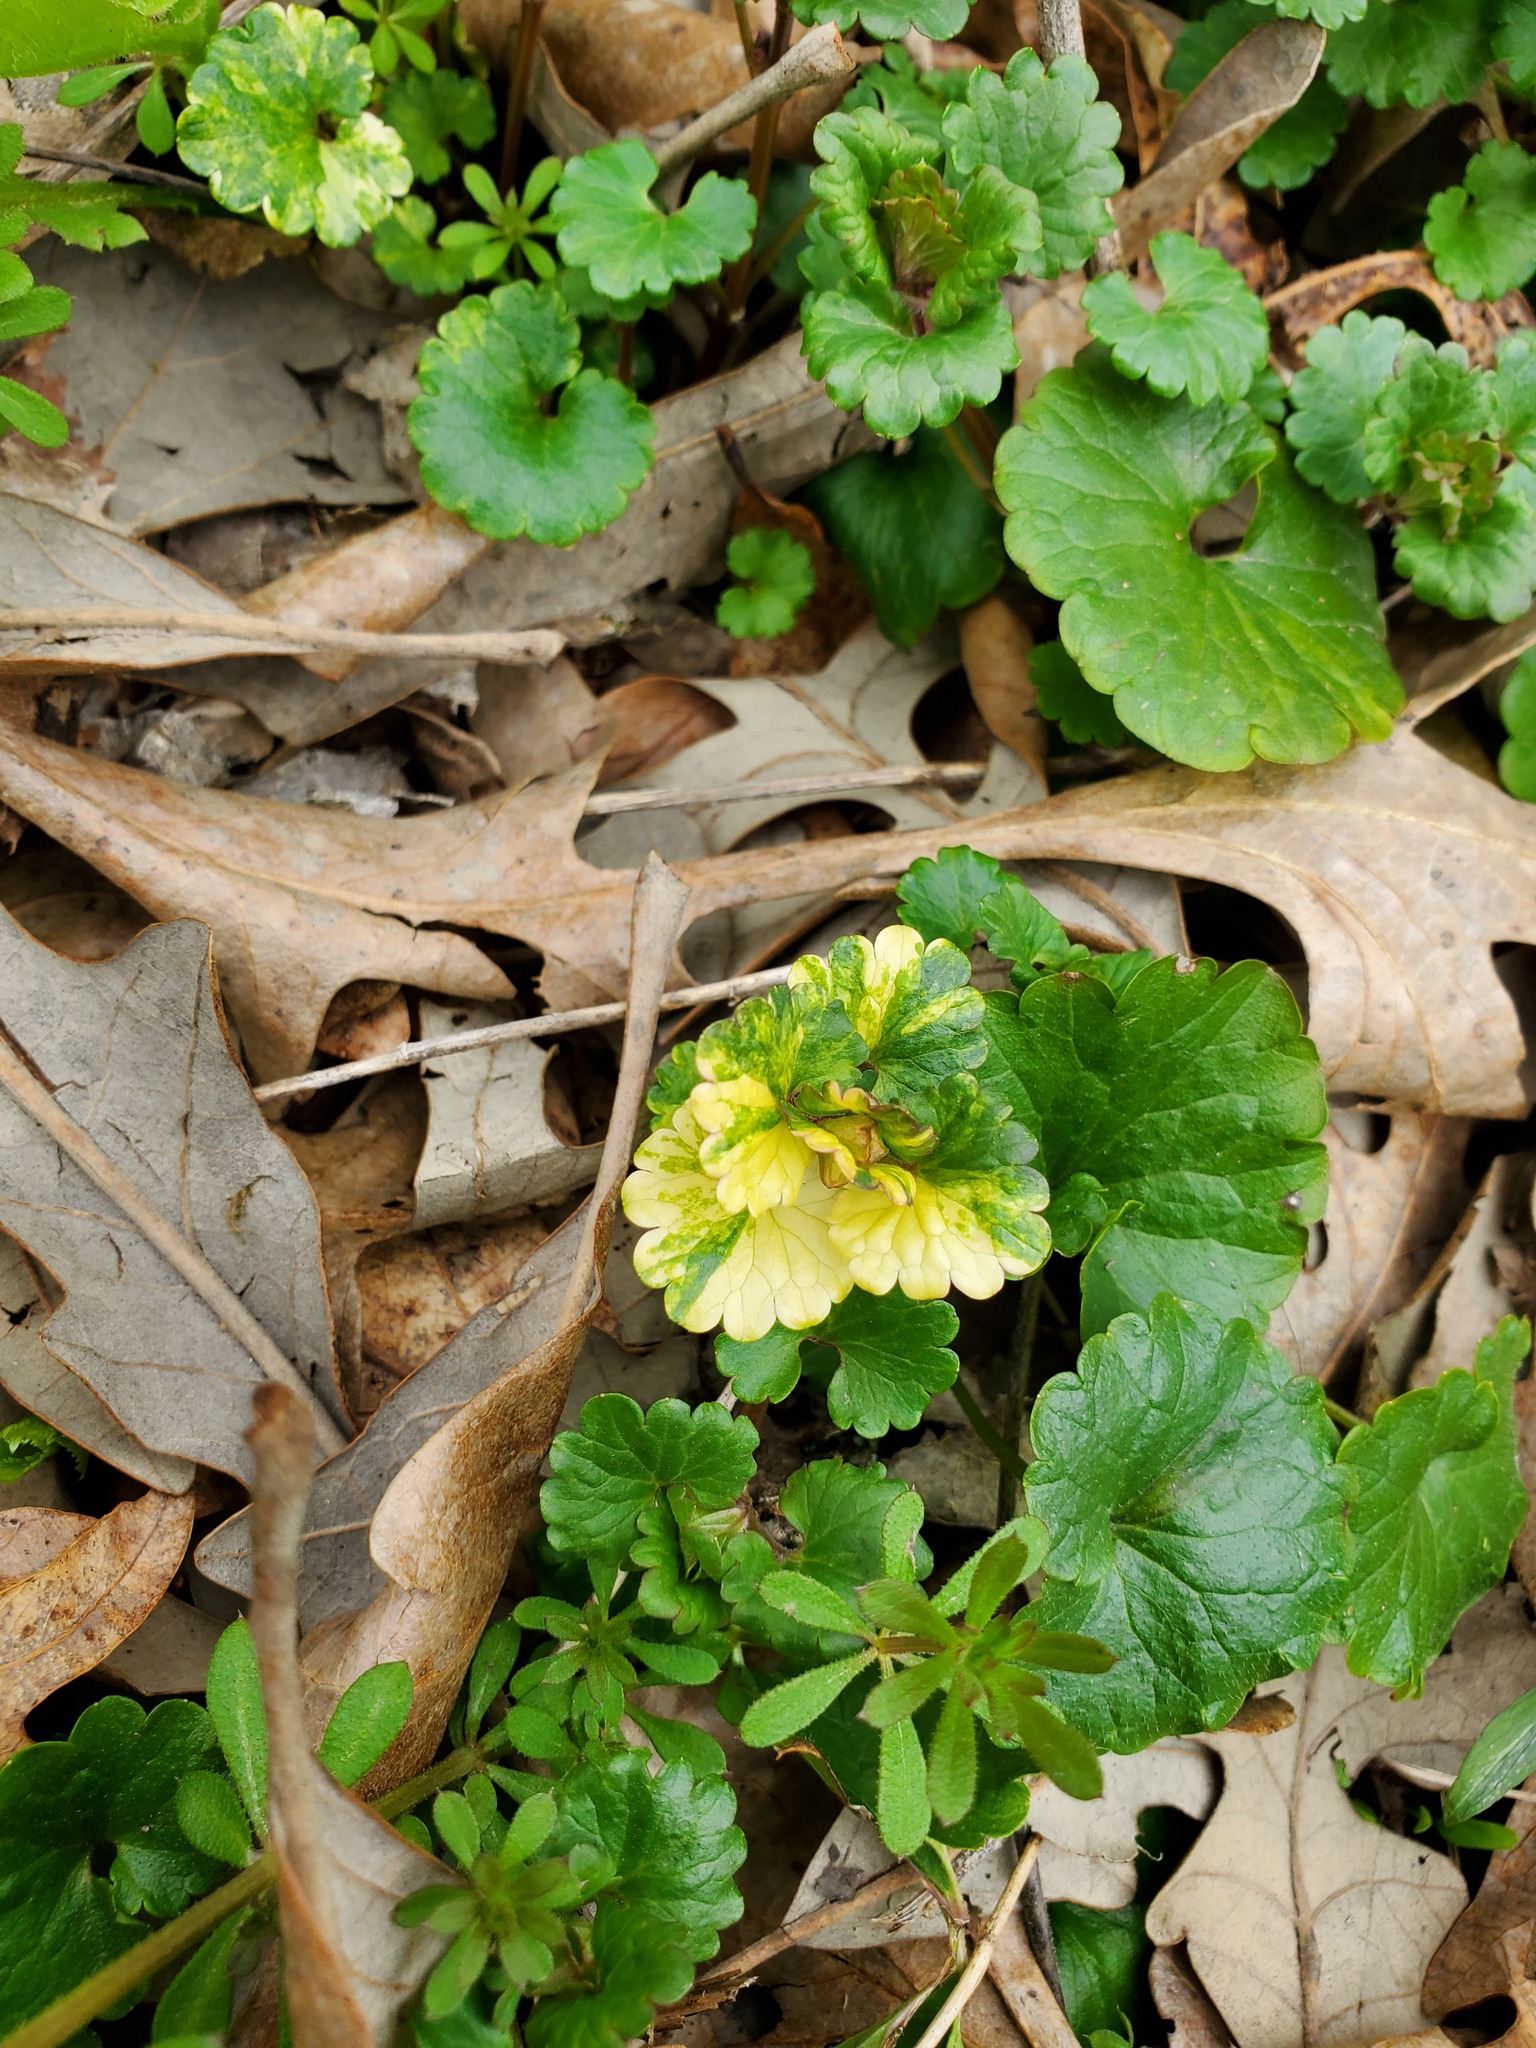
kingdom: Plantae
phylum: Tracheophyta
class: Magnoliopsida
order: Lamiales
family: Lamiaceae
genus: Glechoma
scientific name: Glechoma hederacea
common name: Ground ivy
